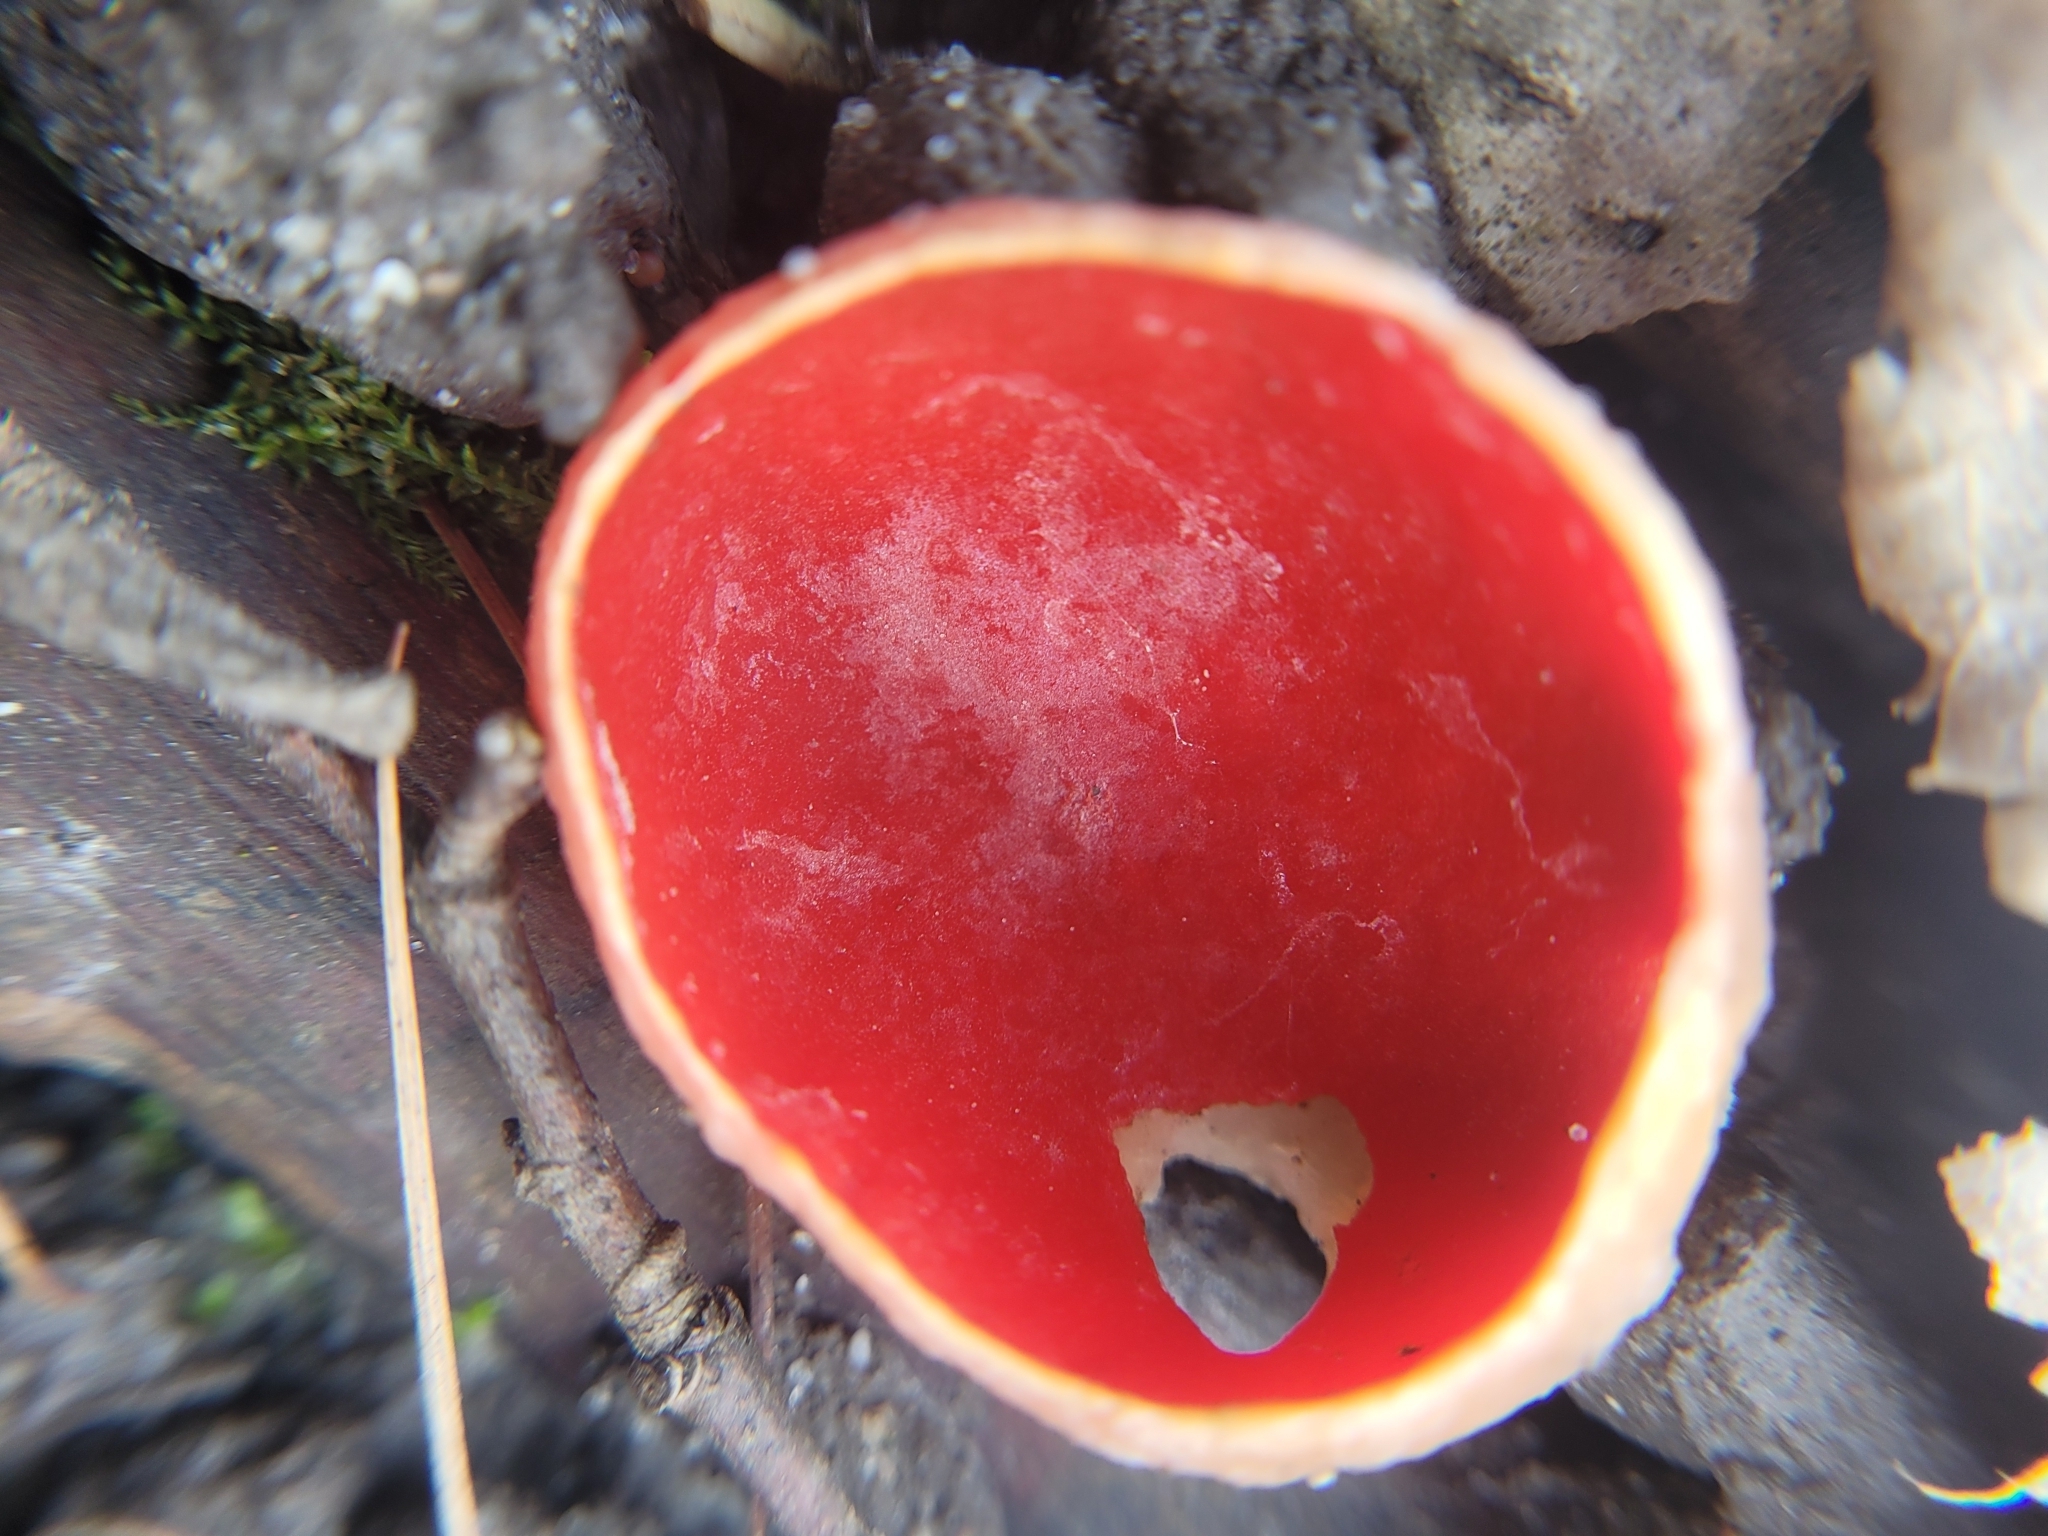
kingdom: Fungi
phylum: Ascomycota
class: Pezizomycetes
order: Pezizales
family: Sarcoscyphaceae
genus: Sarcoscypha
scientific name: Sarcoscypha
